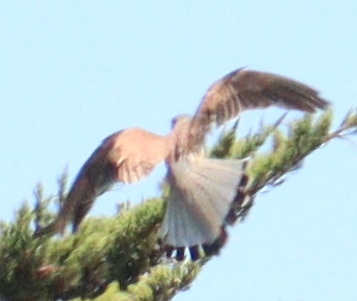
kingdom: Animalia
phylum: Chordata
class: Aves
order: Falconiformes
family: Falconidae
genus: Falco
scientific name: Falco tinnunculus
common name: Common kestrel
